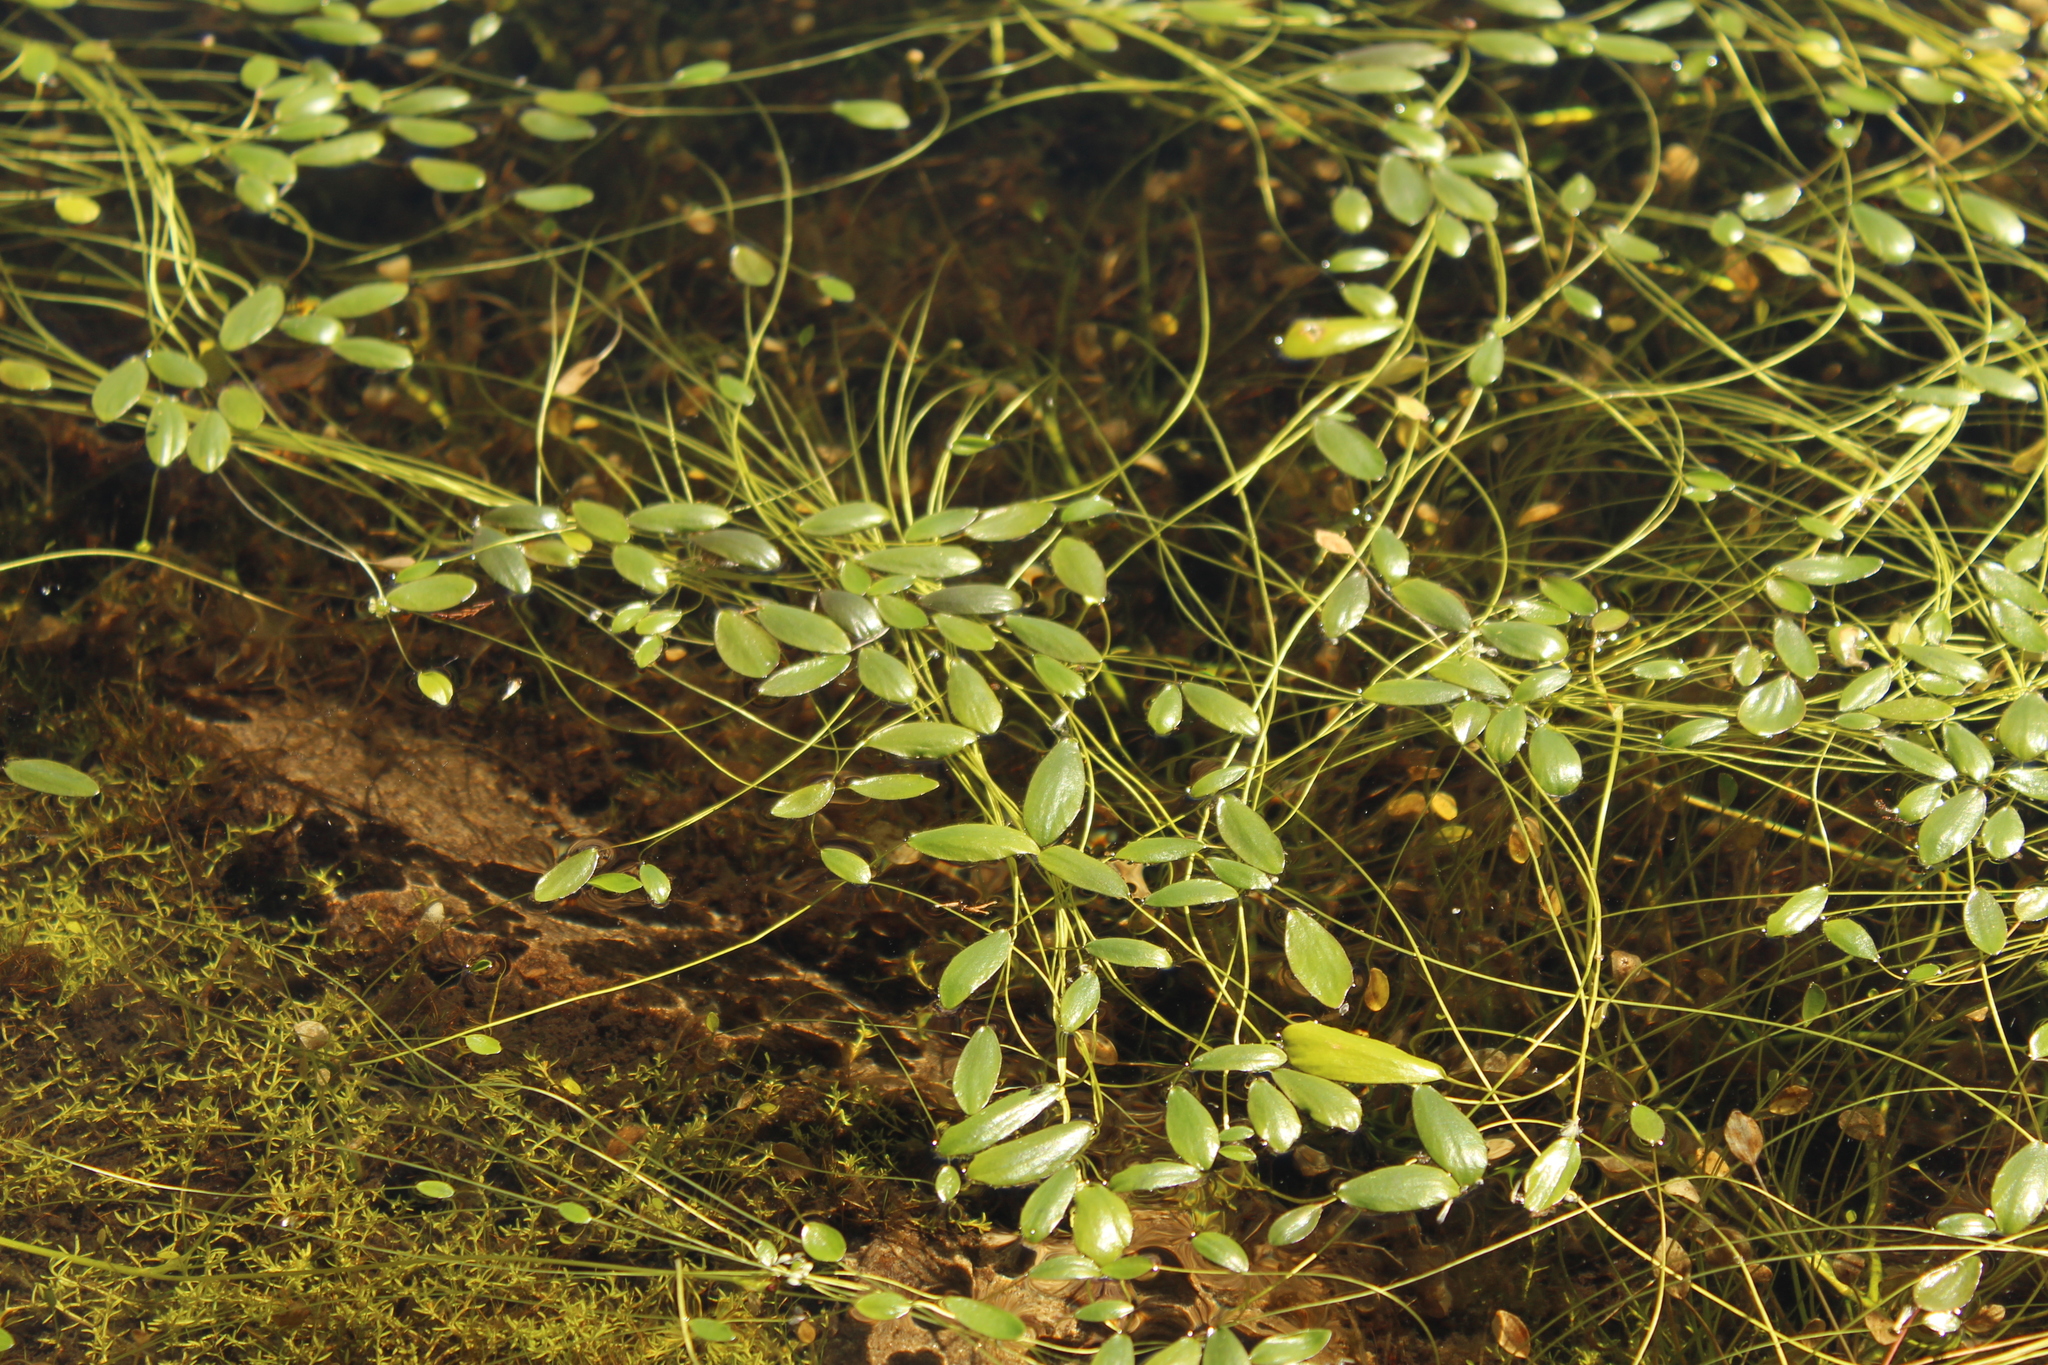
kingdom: Plantae
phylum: Tracheophyta
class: Magnoliopsida
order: Ranunculales
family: Ranunculaceae
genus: Ranunculus
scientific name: Ranunculus limoselloides
